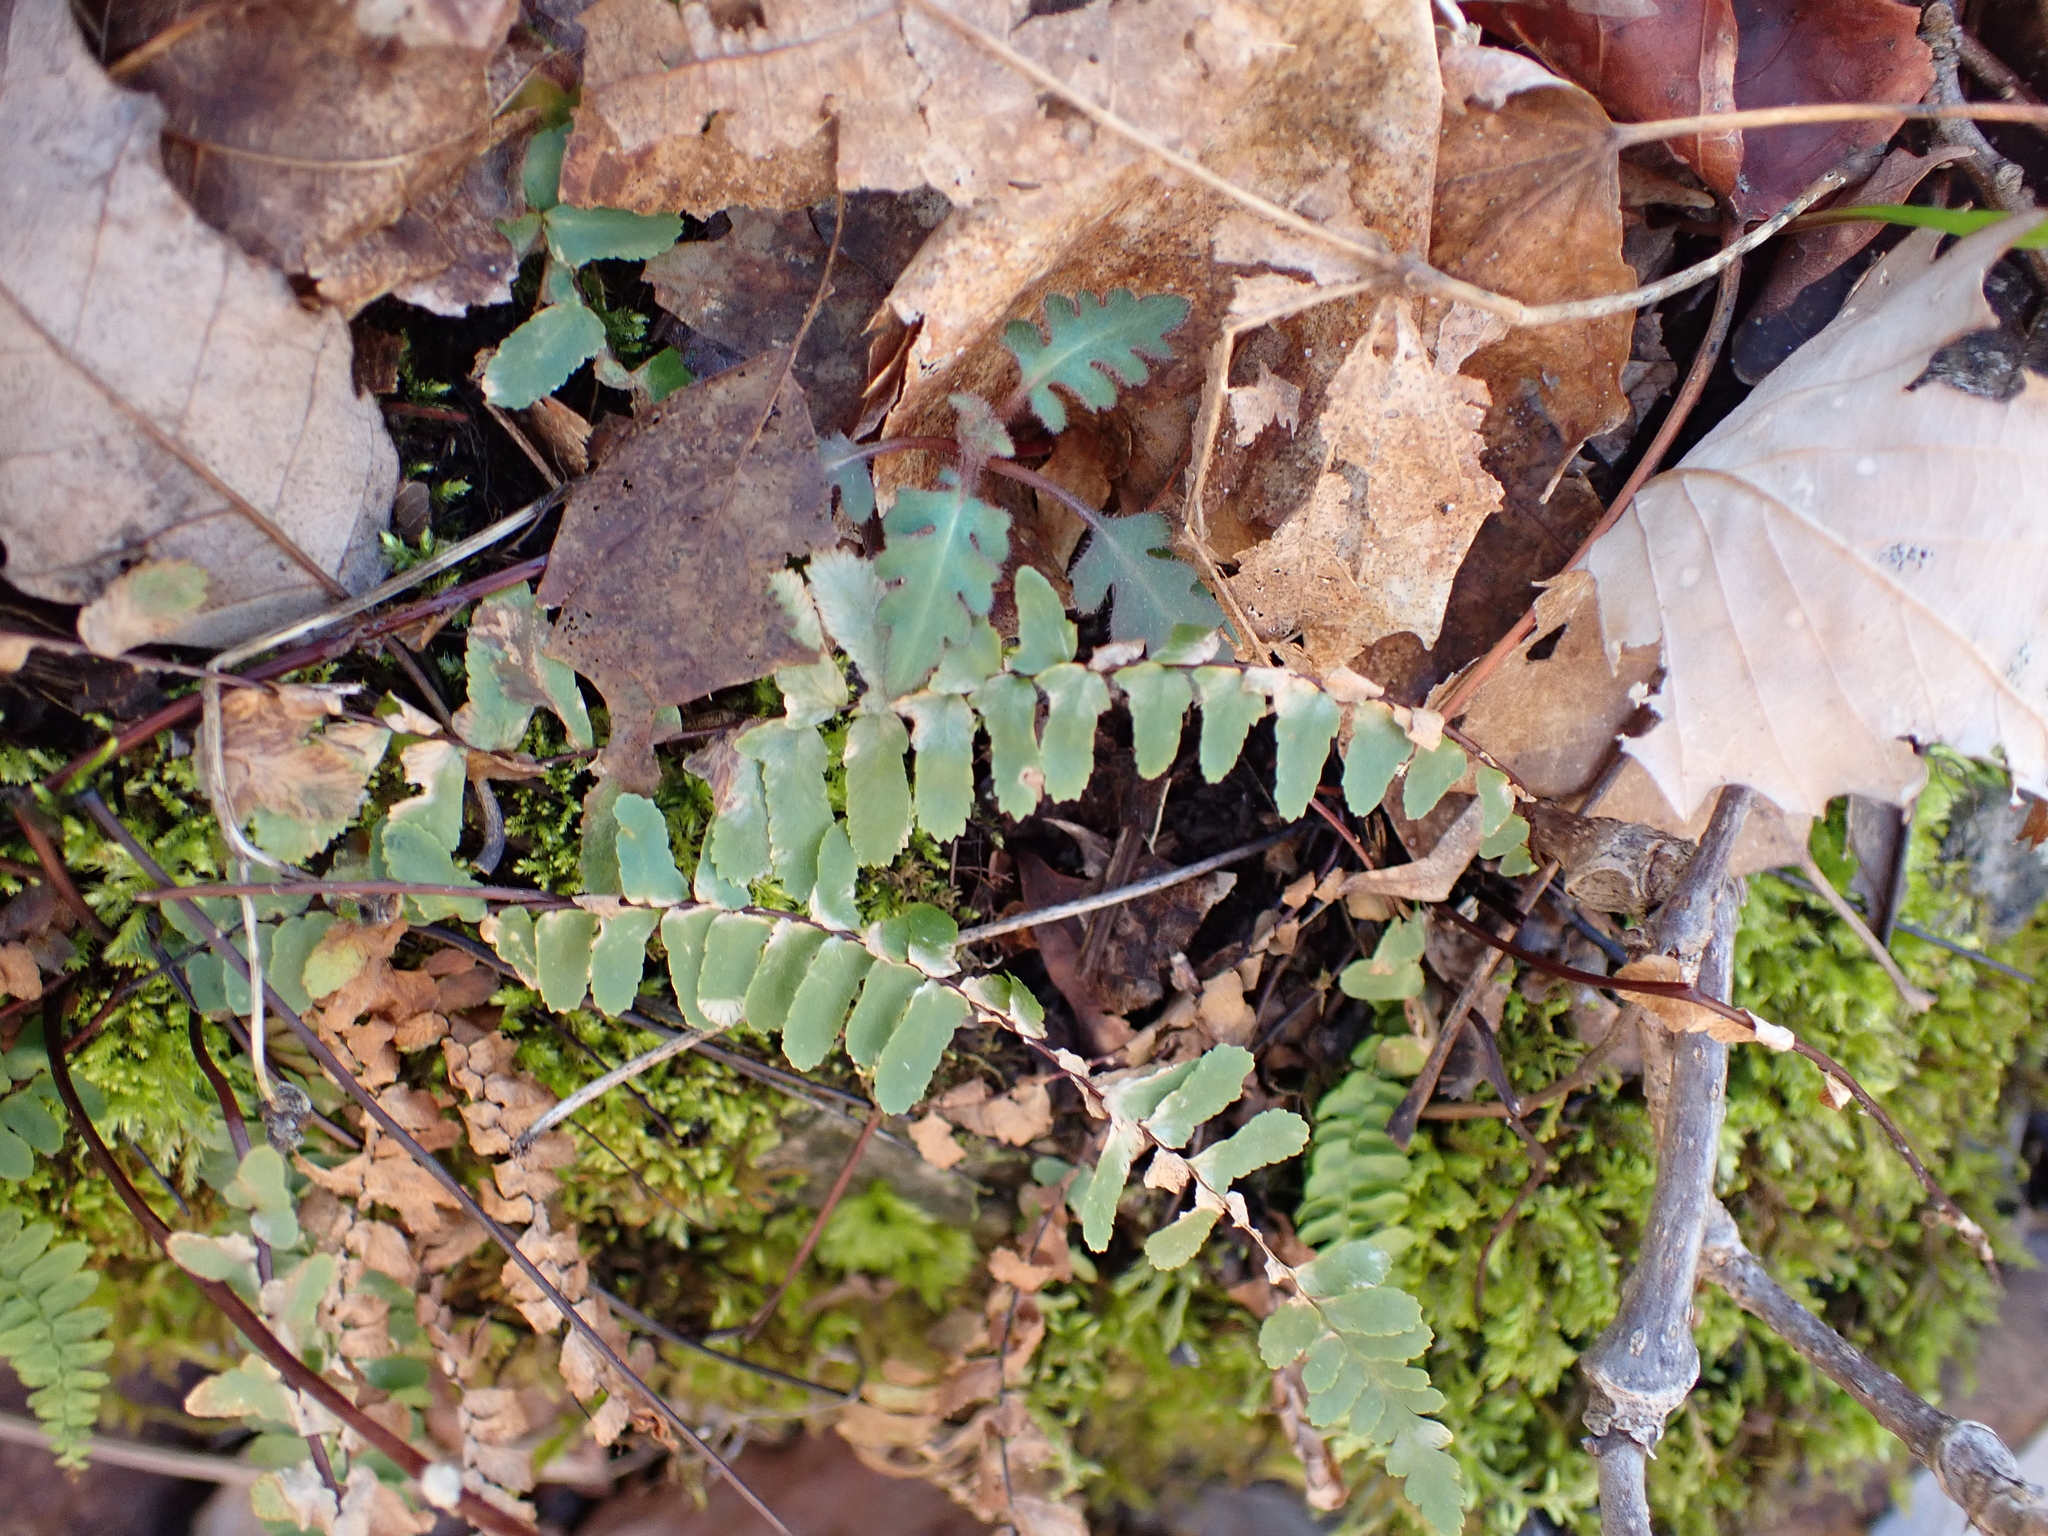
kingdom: Plantae
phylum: Tracheophyta
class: Polypodiopsida
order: Polypodiales
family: Aspleniaceae
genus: Asplenium
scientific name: Asplenium platyneuron
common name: Ebony spleenwort
